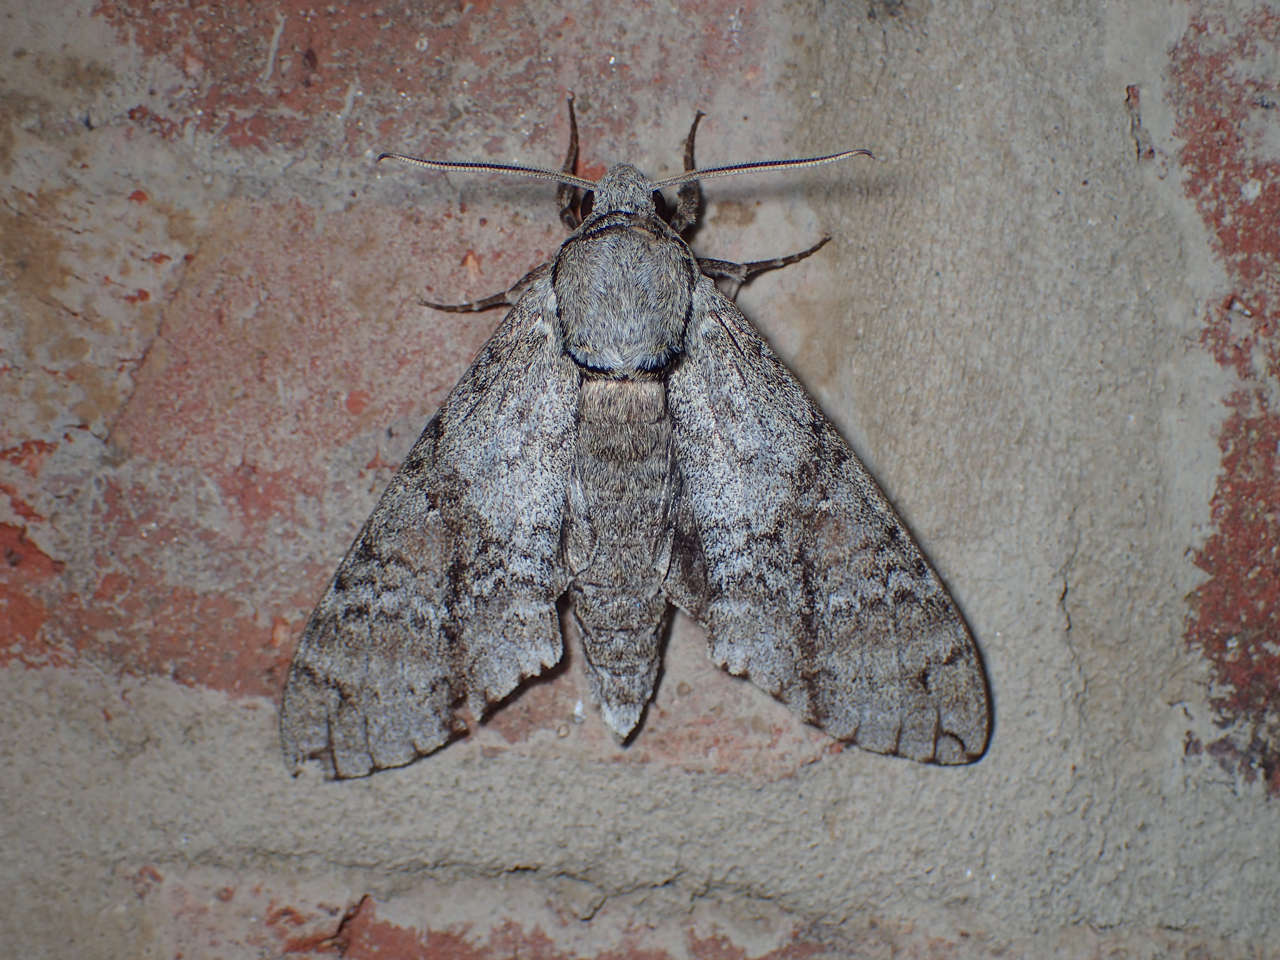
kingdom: Animalia
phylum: Arthropoda
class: Insecta
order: Lepidoptera
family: Sphingidae
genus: Manduca
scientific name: Manduca jasminearum
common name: Ash sphinx
